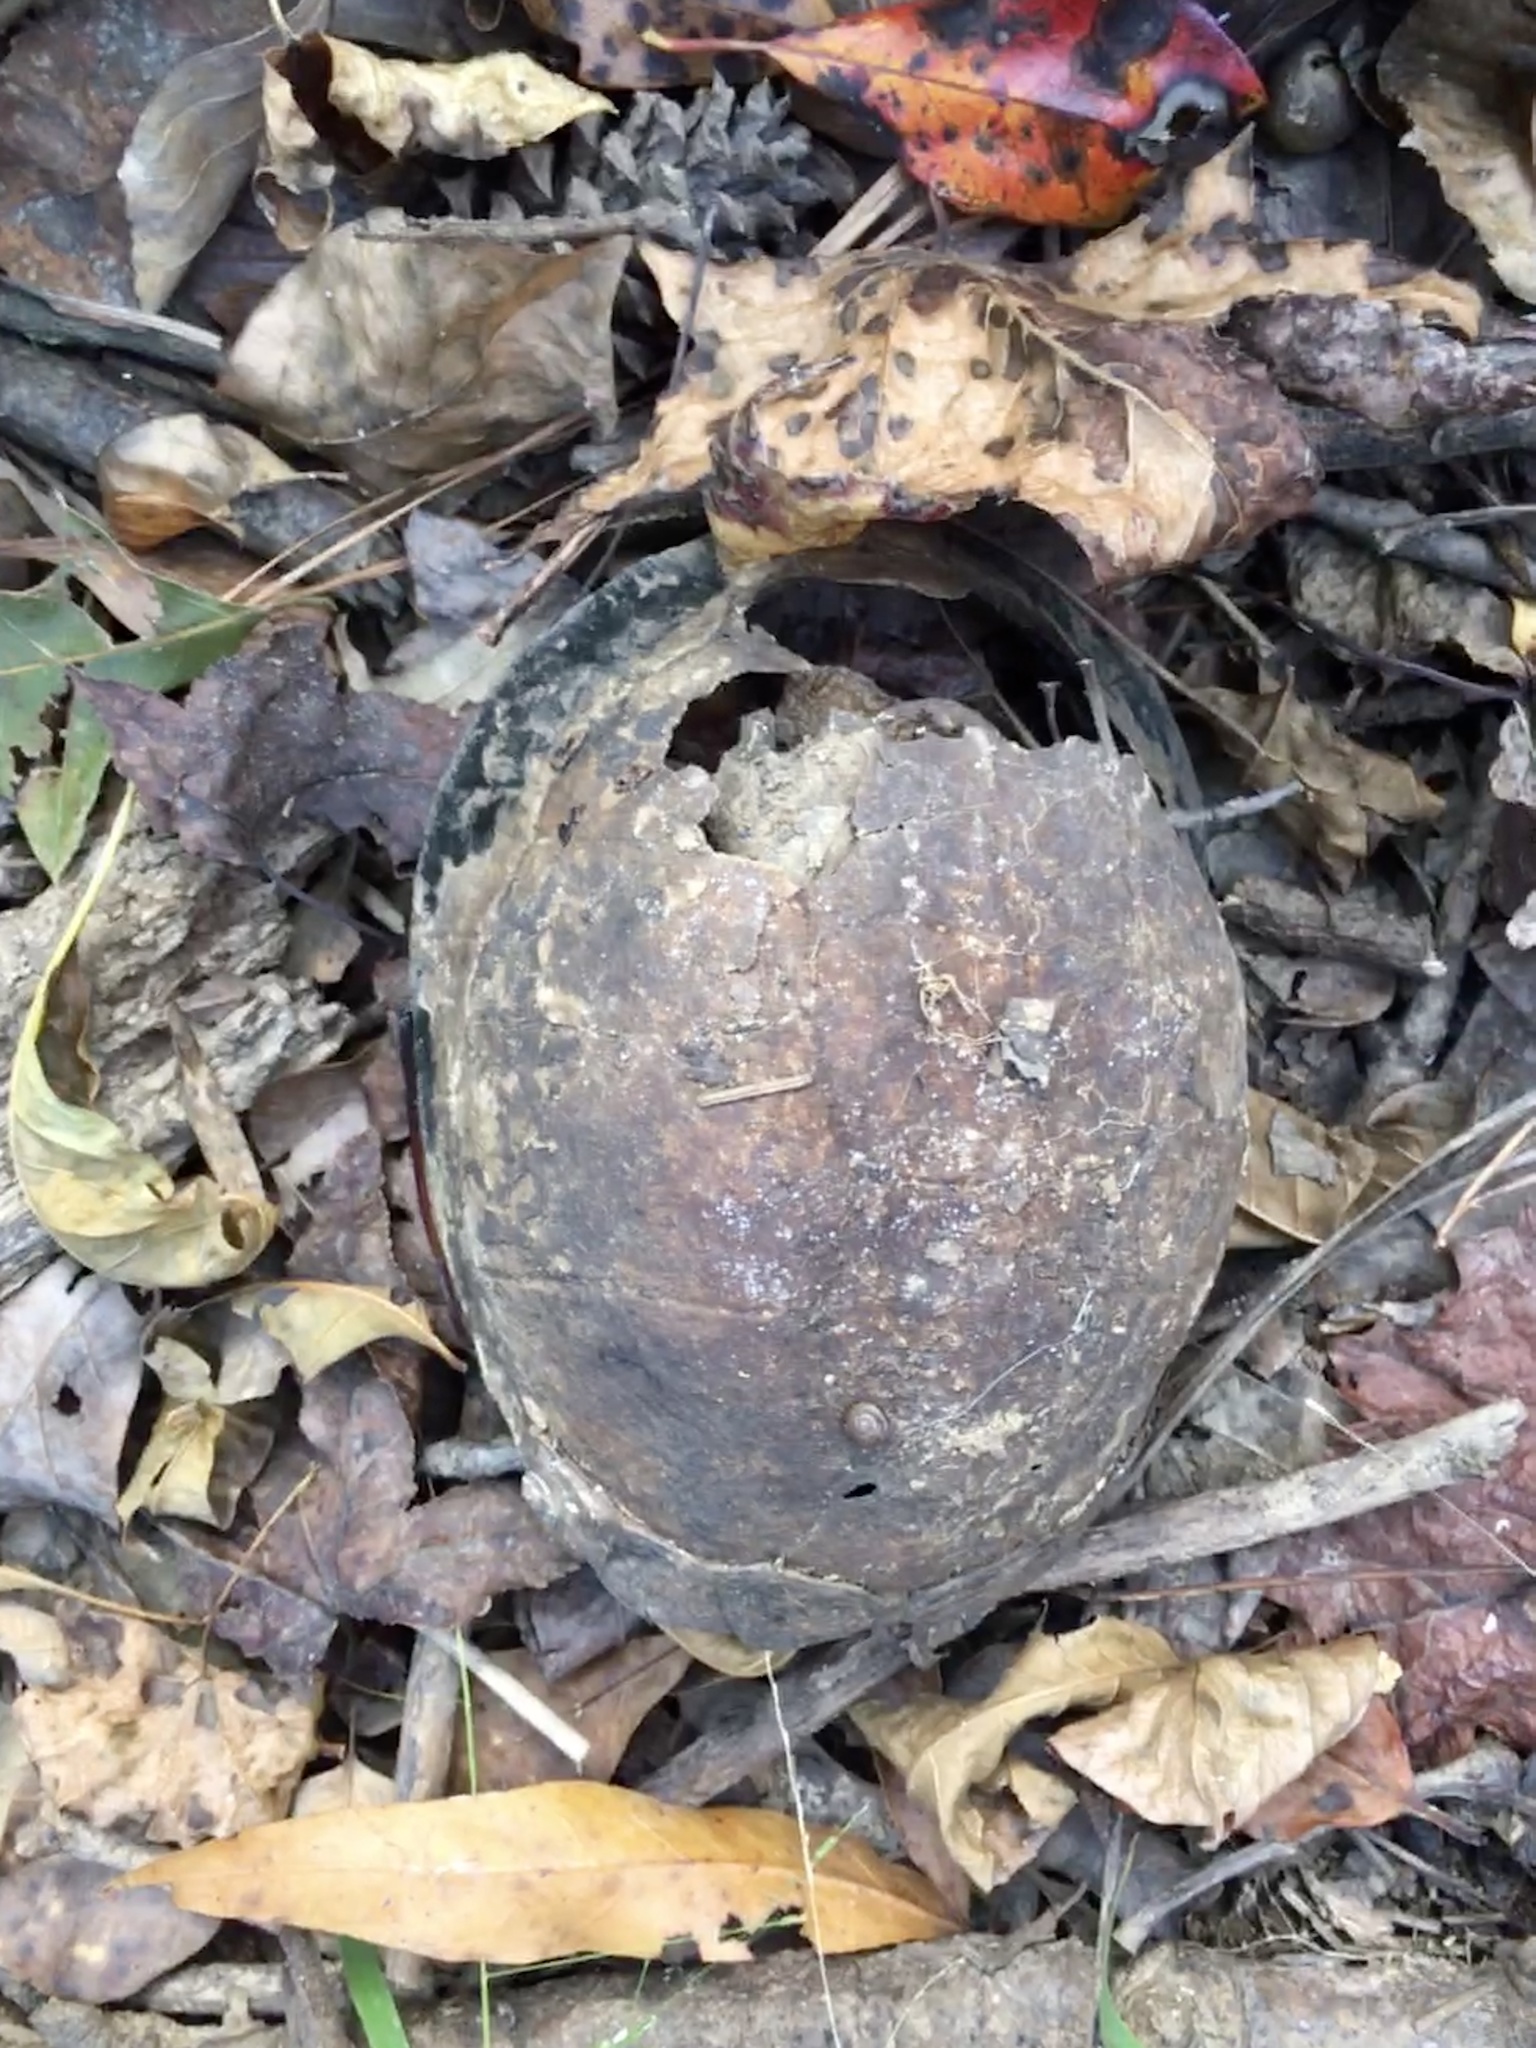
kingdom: Animalia
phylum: Chordata
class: Testudines
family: Emydidae
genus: Terrapene
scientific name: Terrapene carolina
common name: Common box turtle
